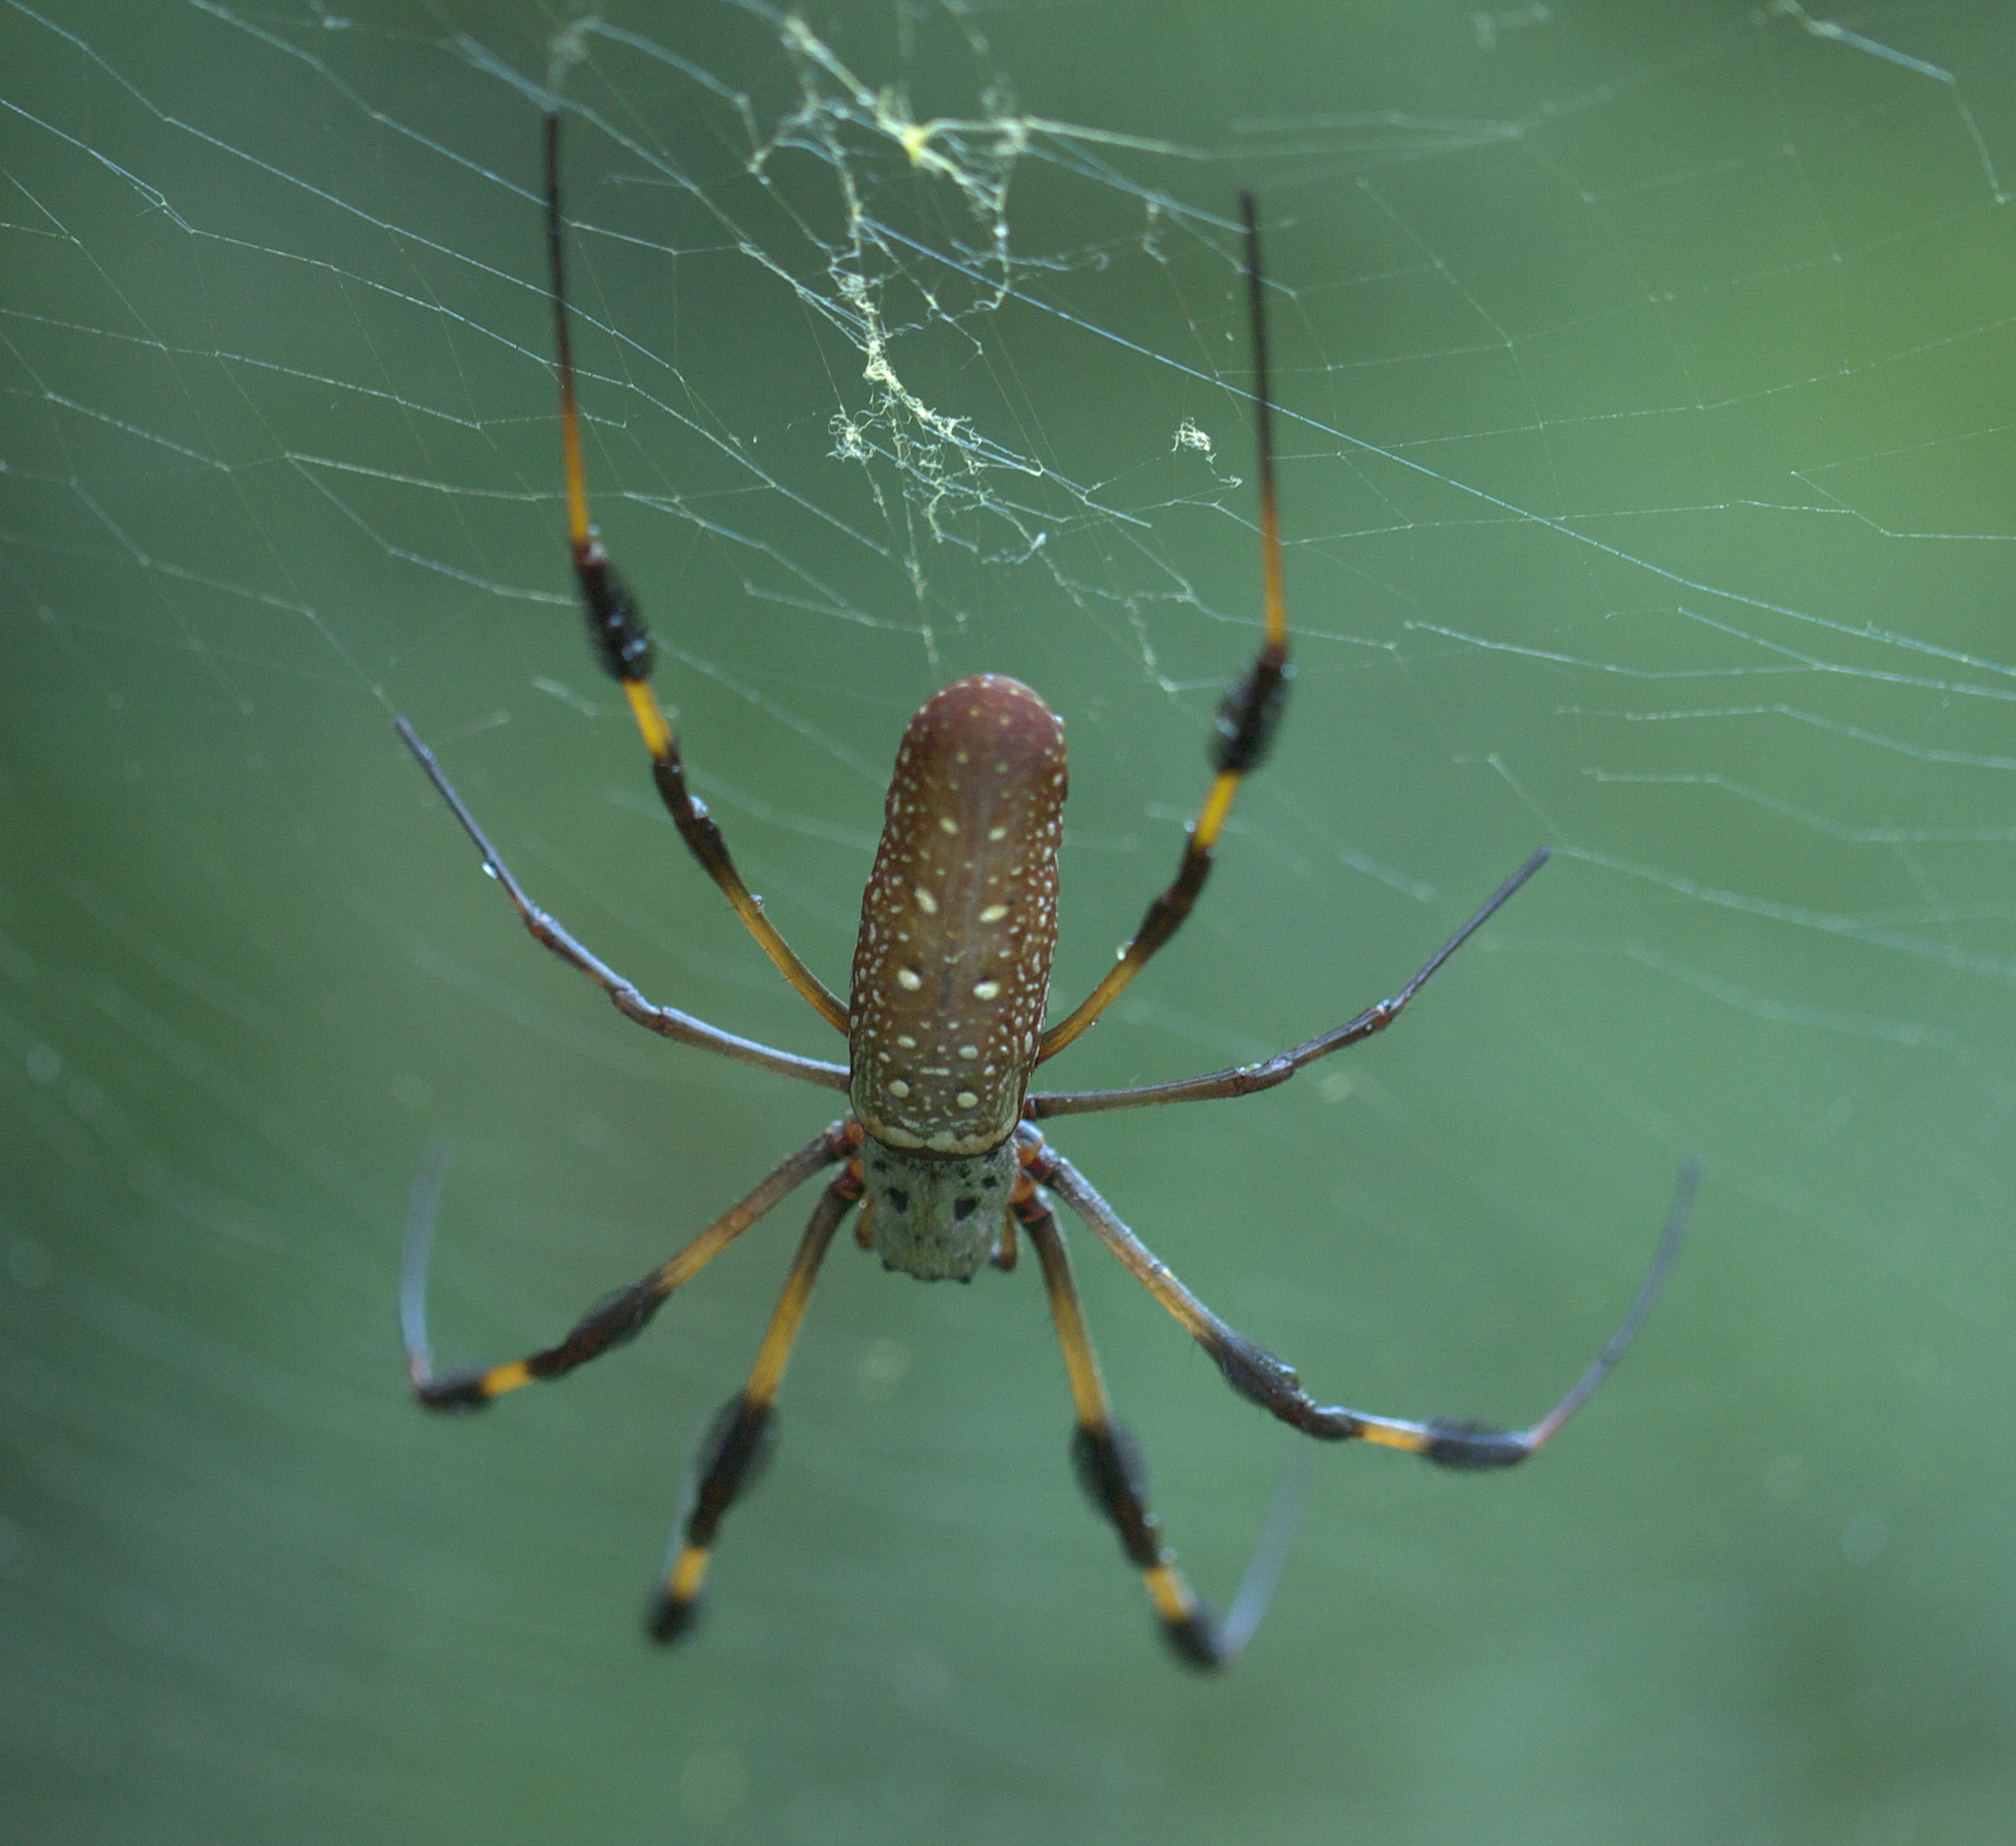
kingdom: Animalia
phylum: Arthropoda
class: Arachnida
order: Araneae
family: Araneidae
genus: Trichonephila
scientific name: Trichonephila clavipes
